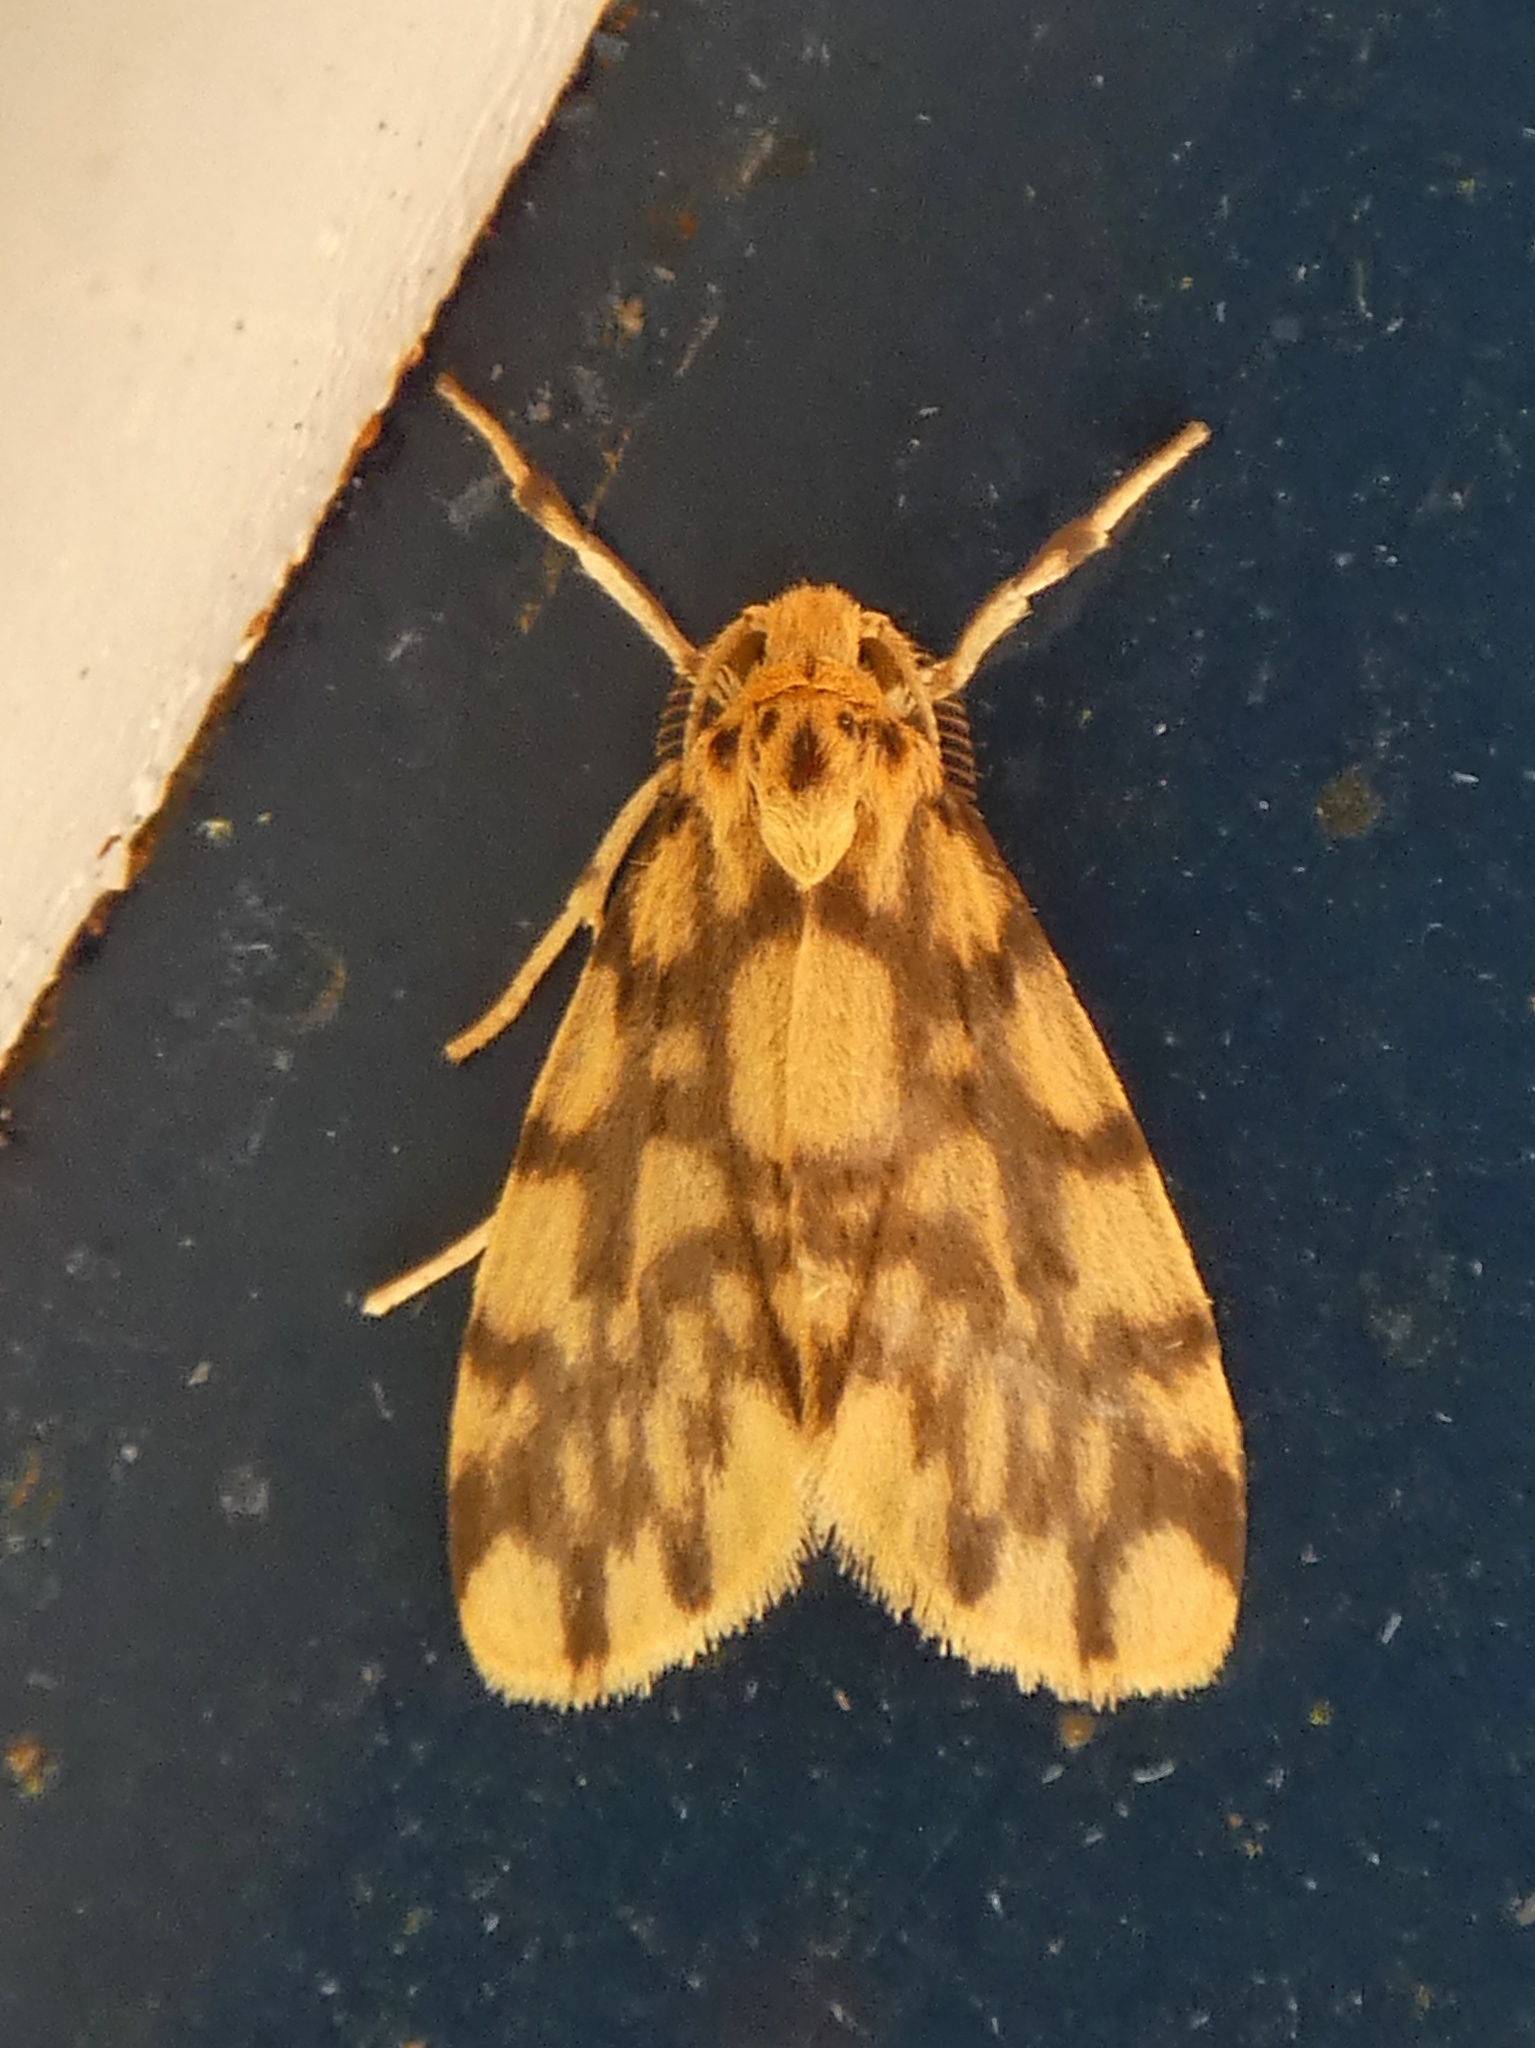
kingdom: Animalia
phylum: Arthropoda
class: Insecta
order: Lepidoptera
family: Erebidae
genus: Asura
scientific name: Asura saginaea
